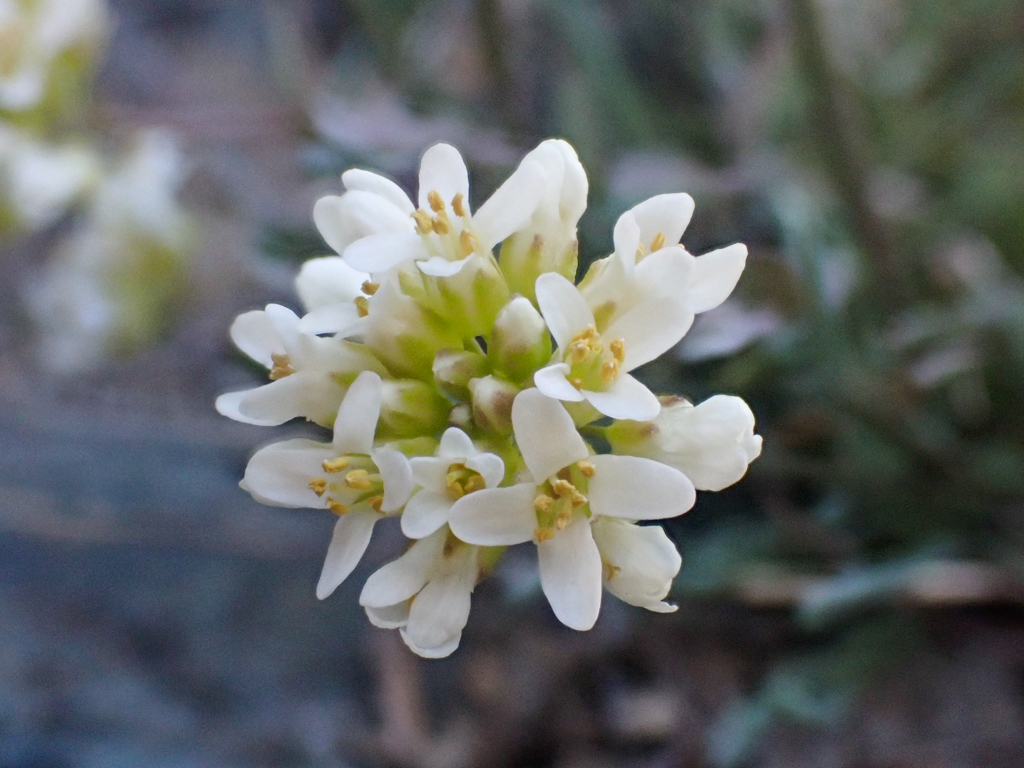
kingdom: Plantae
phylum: Tracheophyta
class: Magnoliopsida
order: Brassicales
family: Brassicaceae
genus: Noccaea
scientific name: Noccaea fendleri
